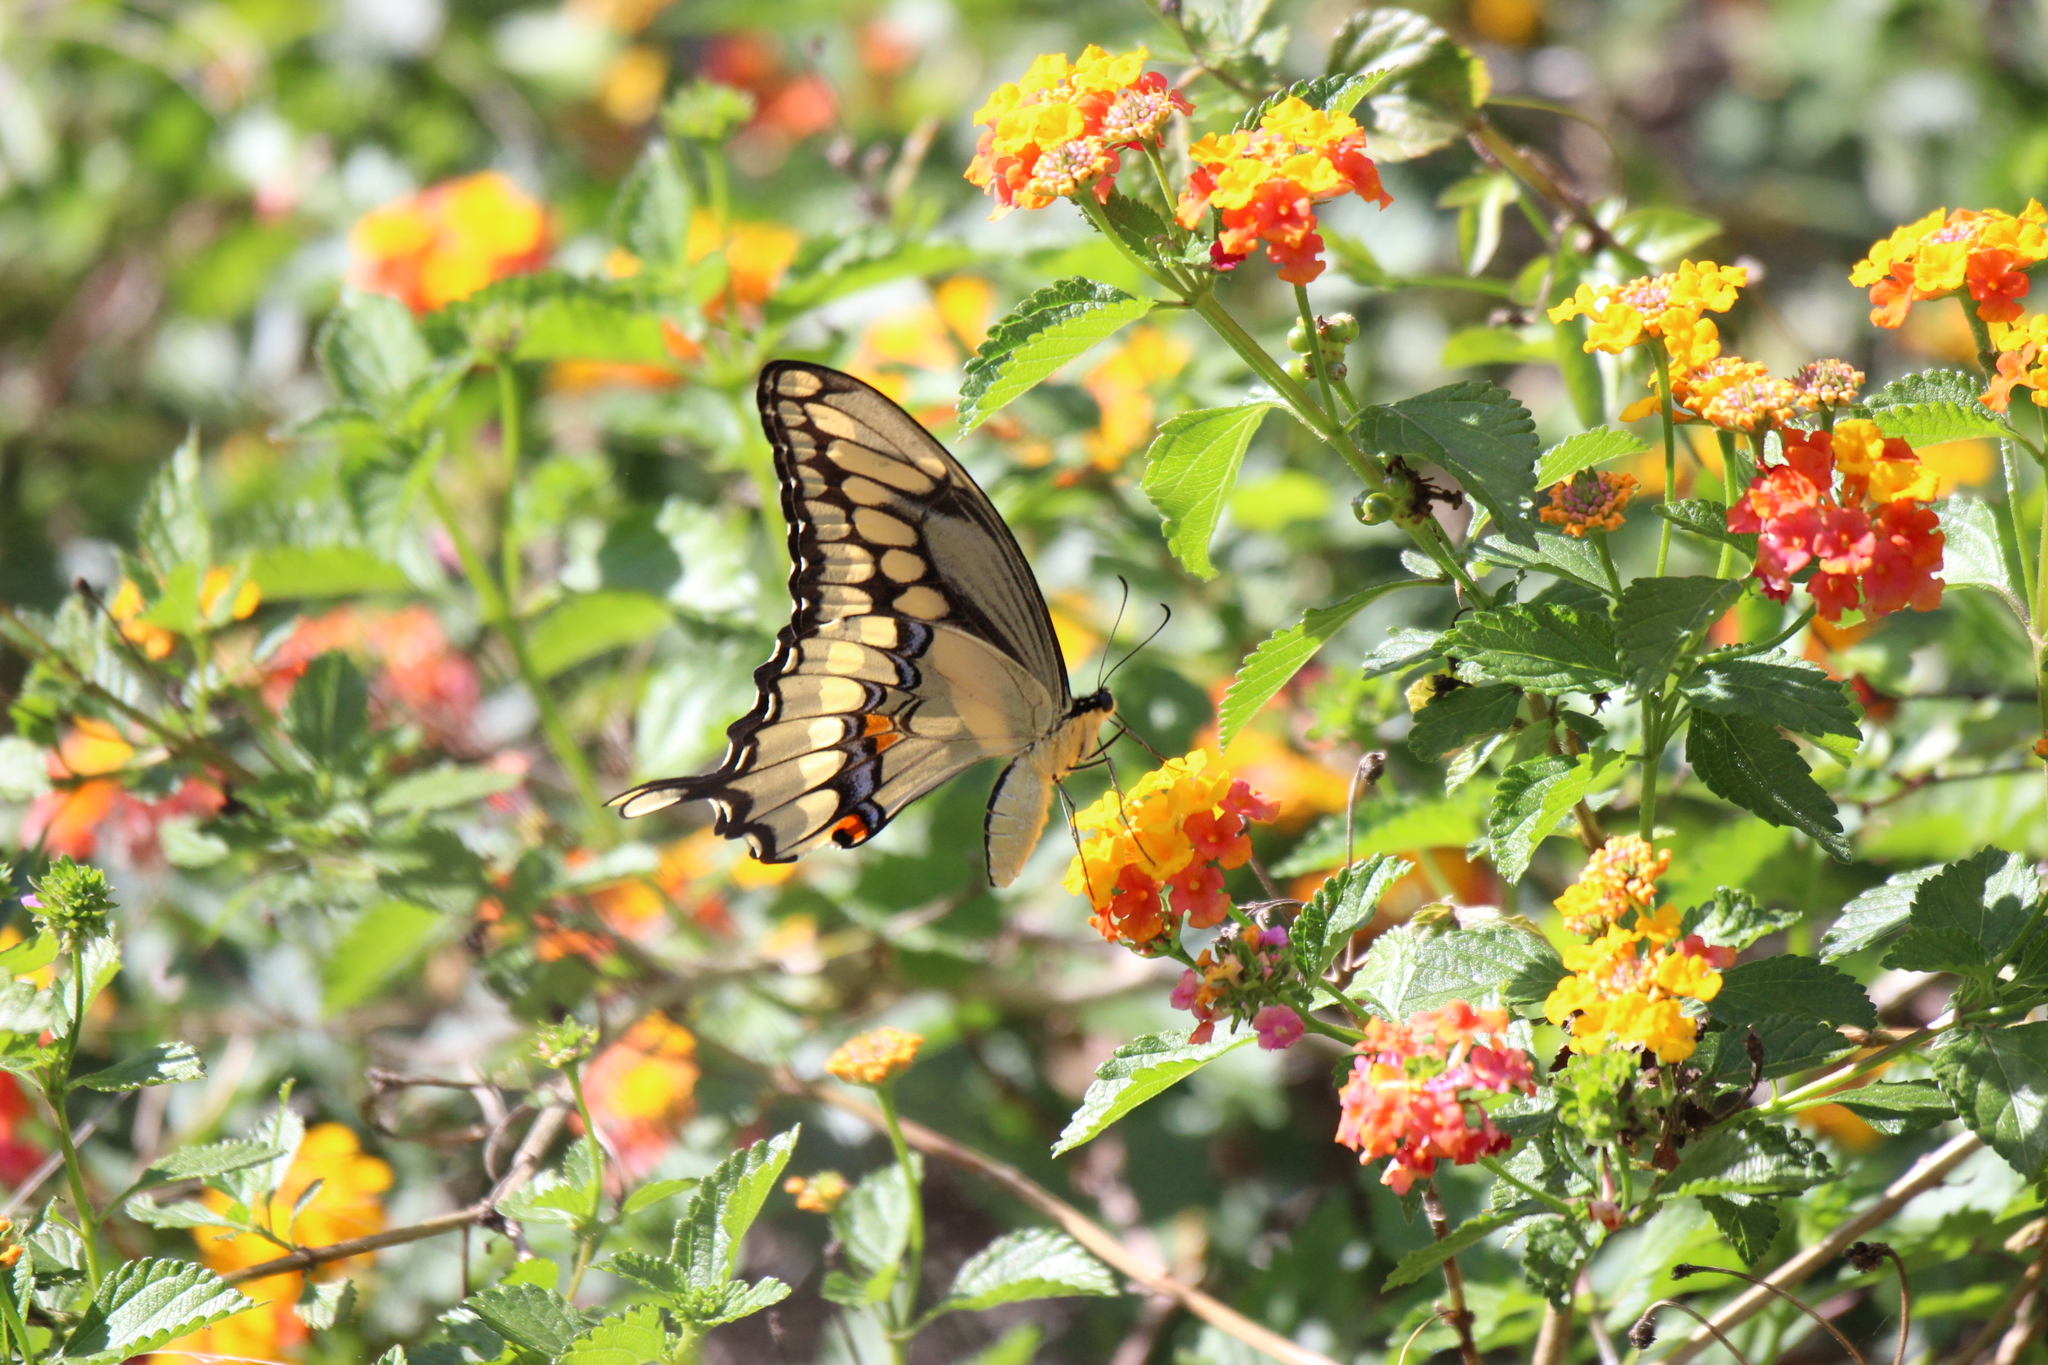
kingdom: Animalia
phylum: Arthropoda
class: Insecta
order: Lepidoptera
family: Papilionidae
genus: Papilio
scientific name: Papilio cresphontes
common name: Giant swallowtail
